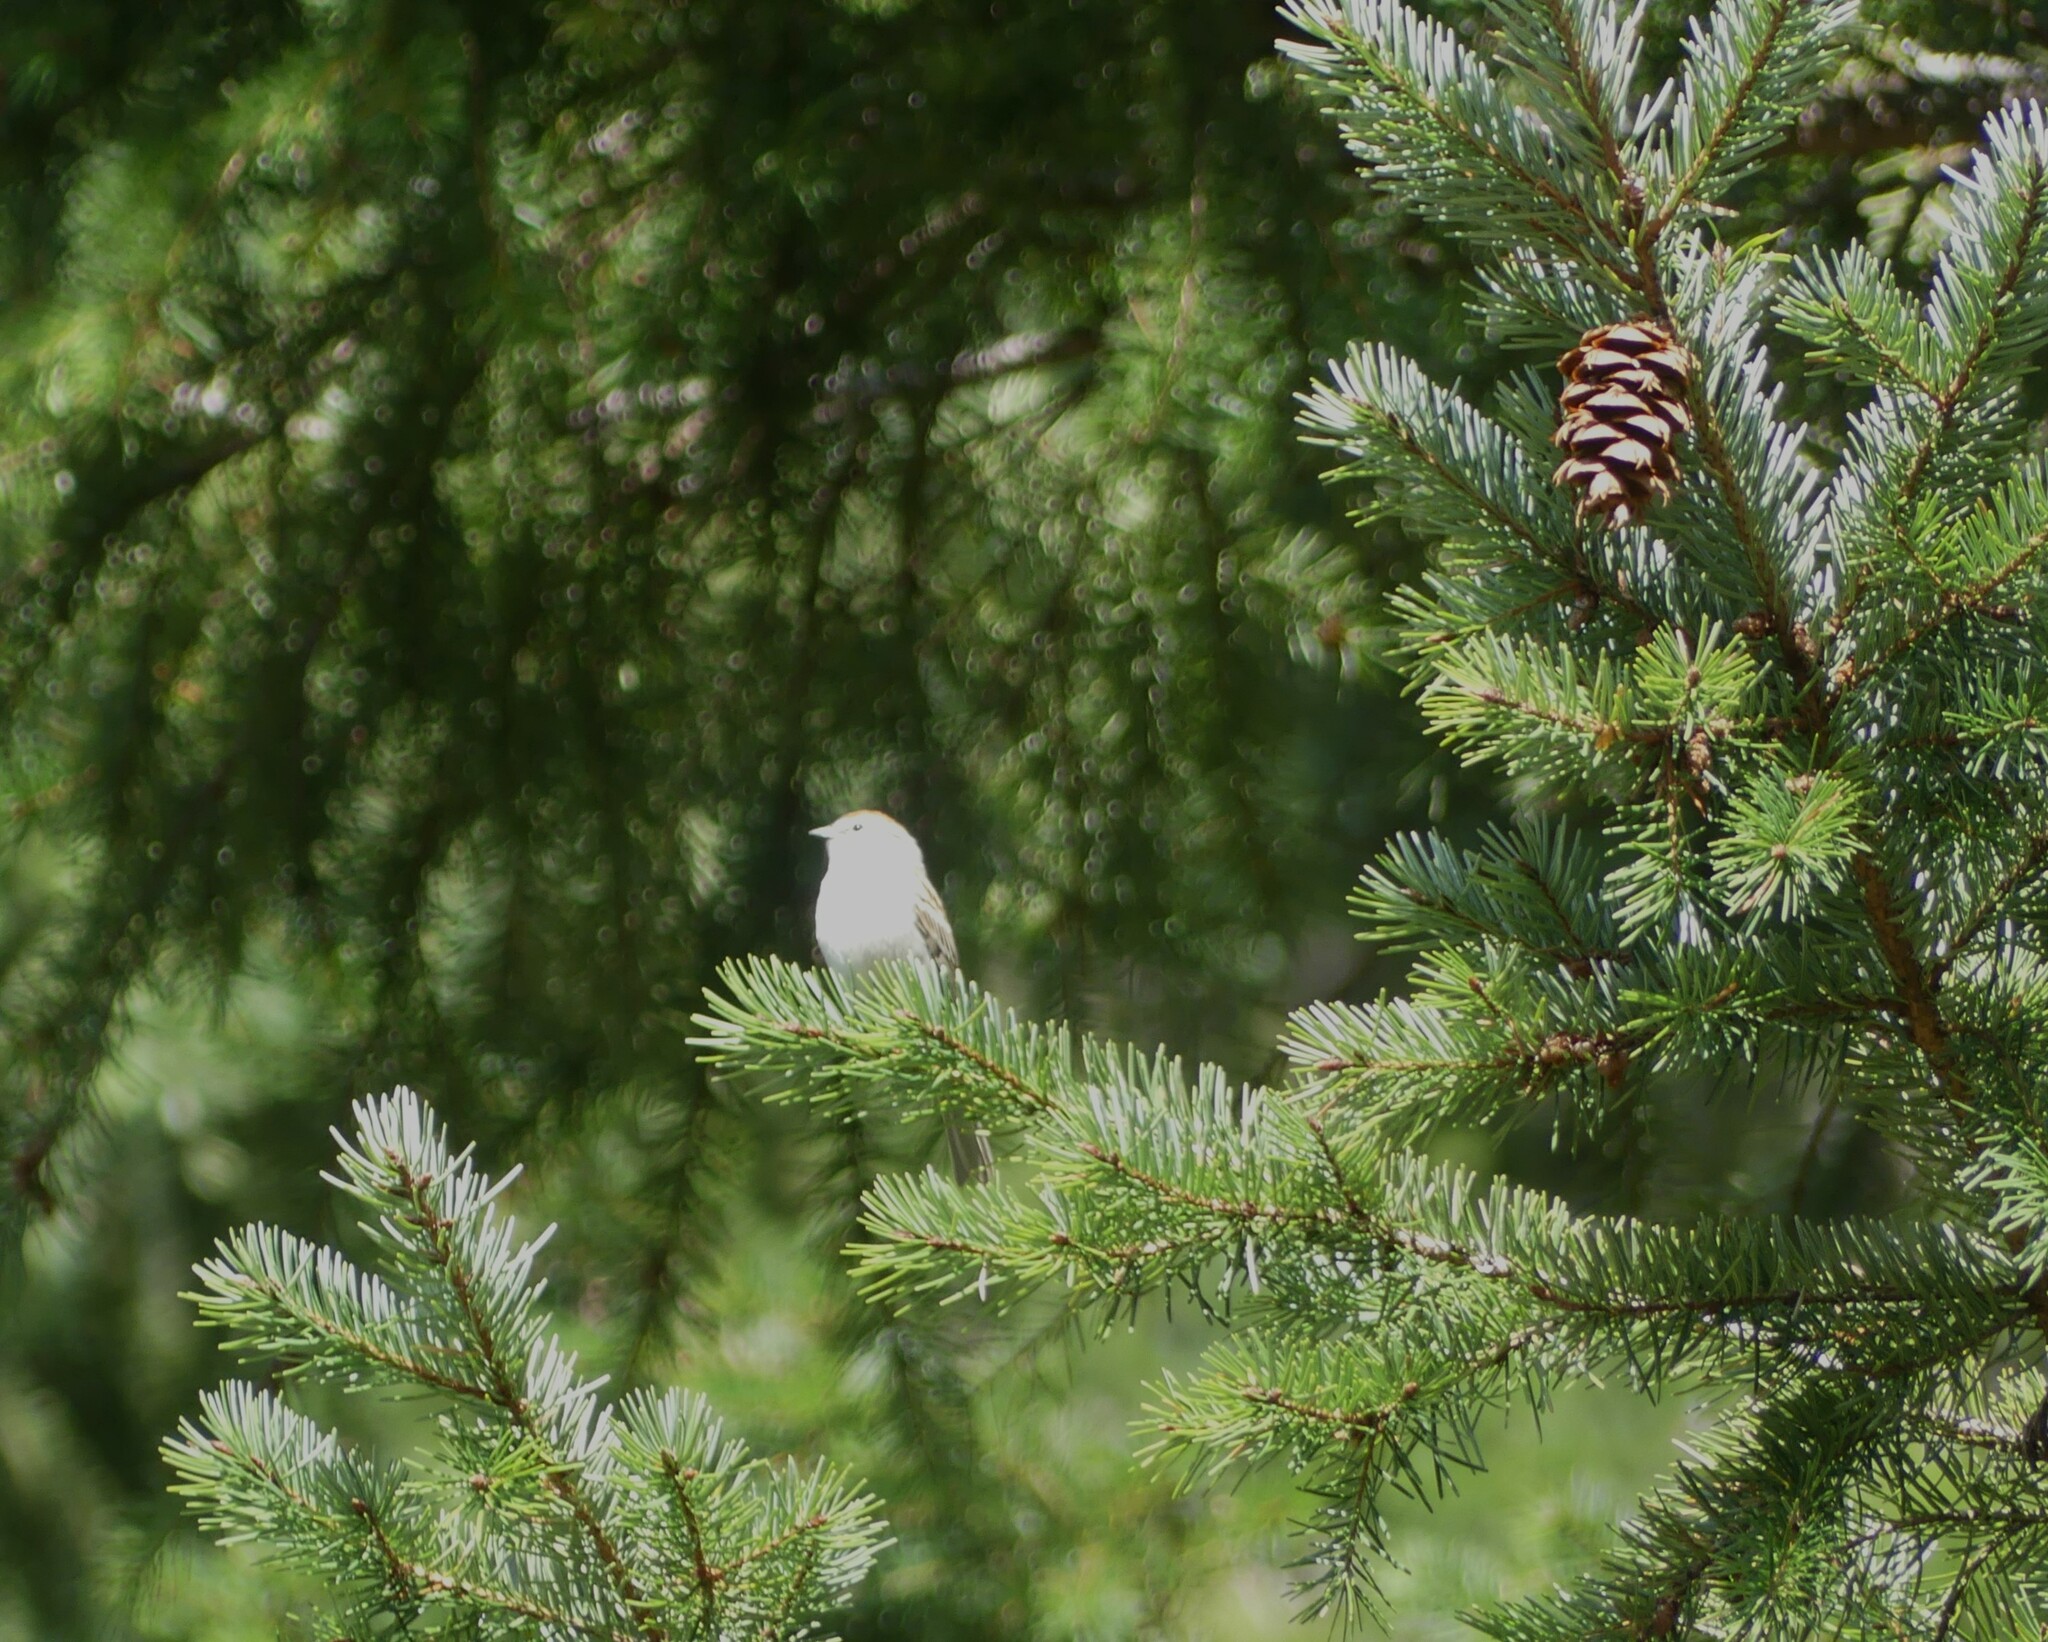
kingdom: Animalia
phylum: Chordata
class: Aves
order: Passeriformes
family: Passerellidae
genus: Spizella
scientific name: Spizella passerina
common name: Chipping sparrow
